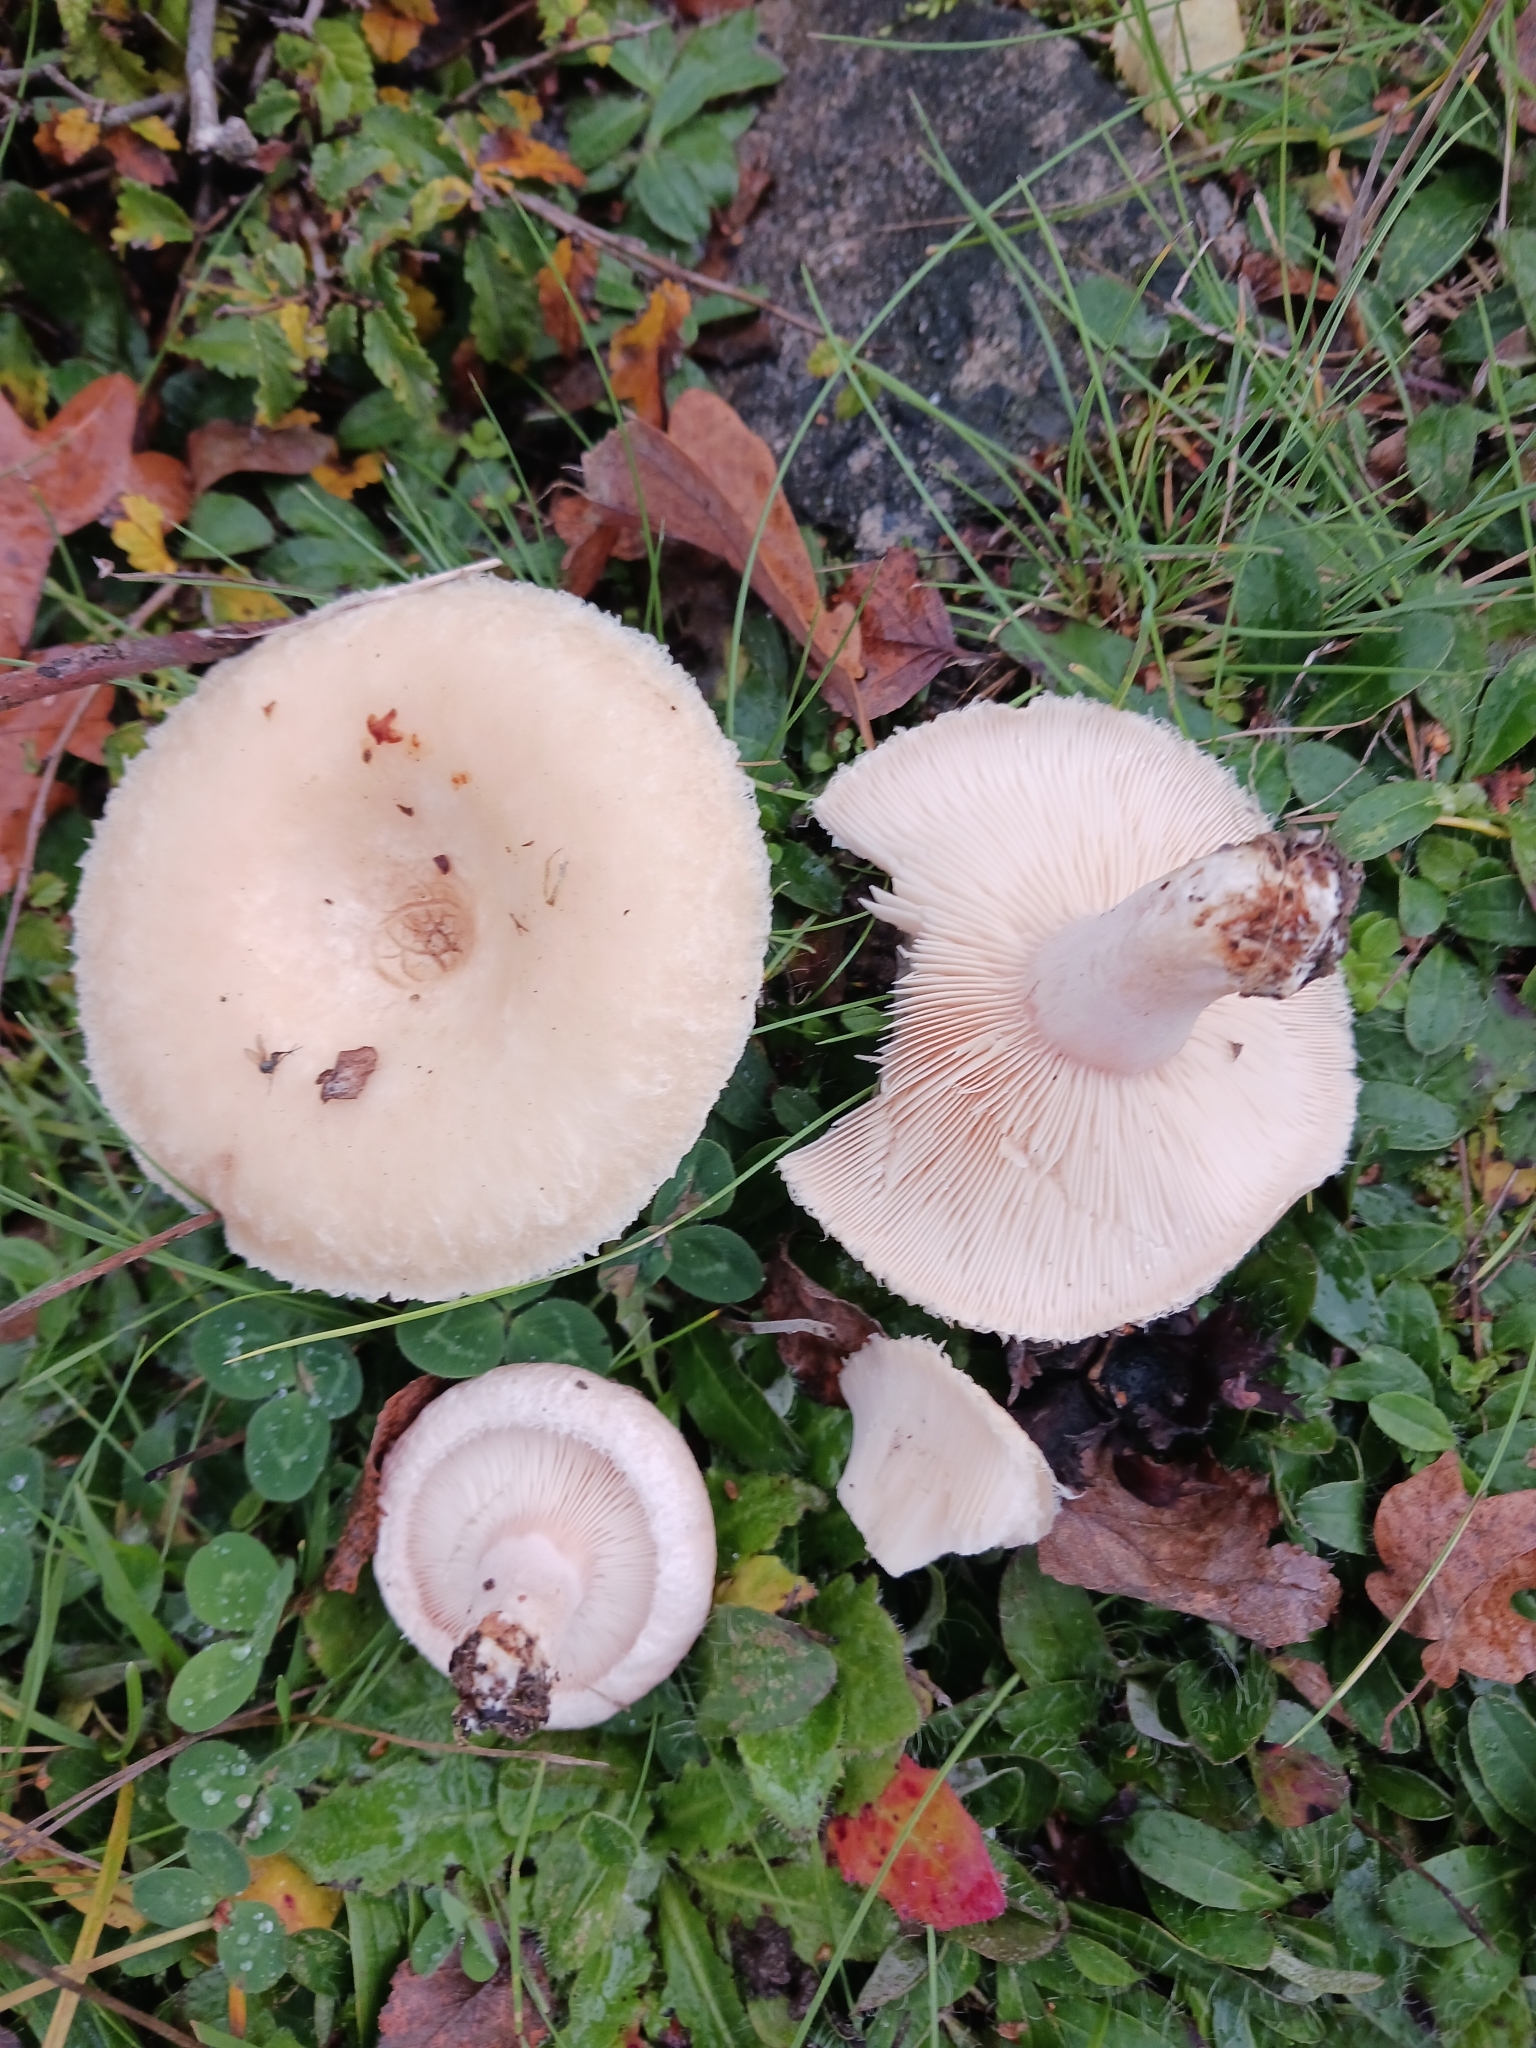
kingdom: Fungi
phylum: Basidiomycota
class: Agaricomycetes
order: Russulales
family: Russulaceae
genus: Lactarius
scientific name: Lactarius pubescens
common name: Bearded milkcap
